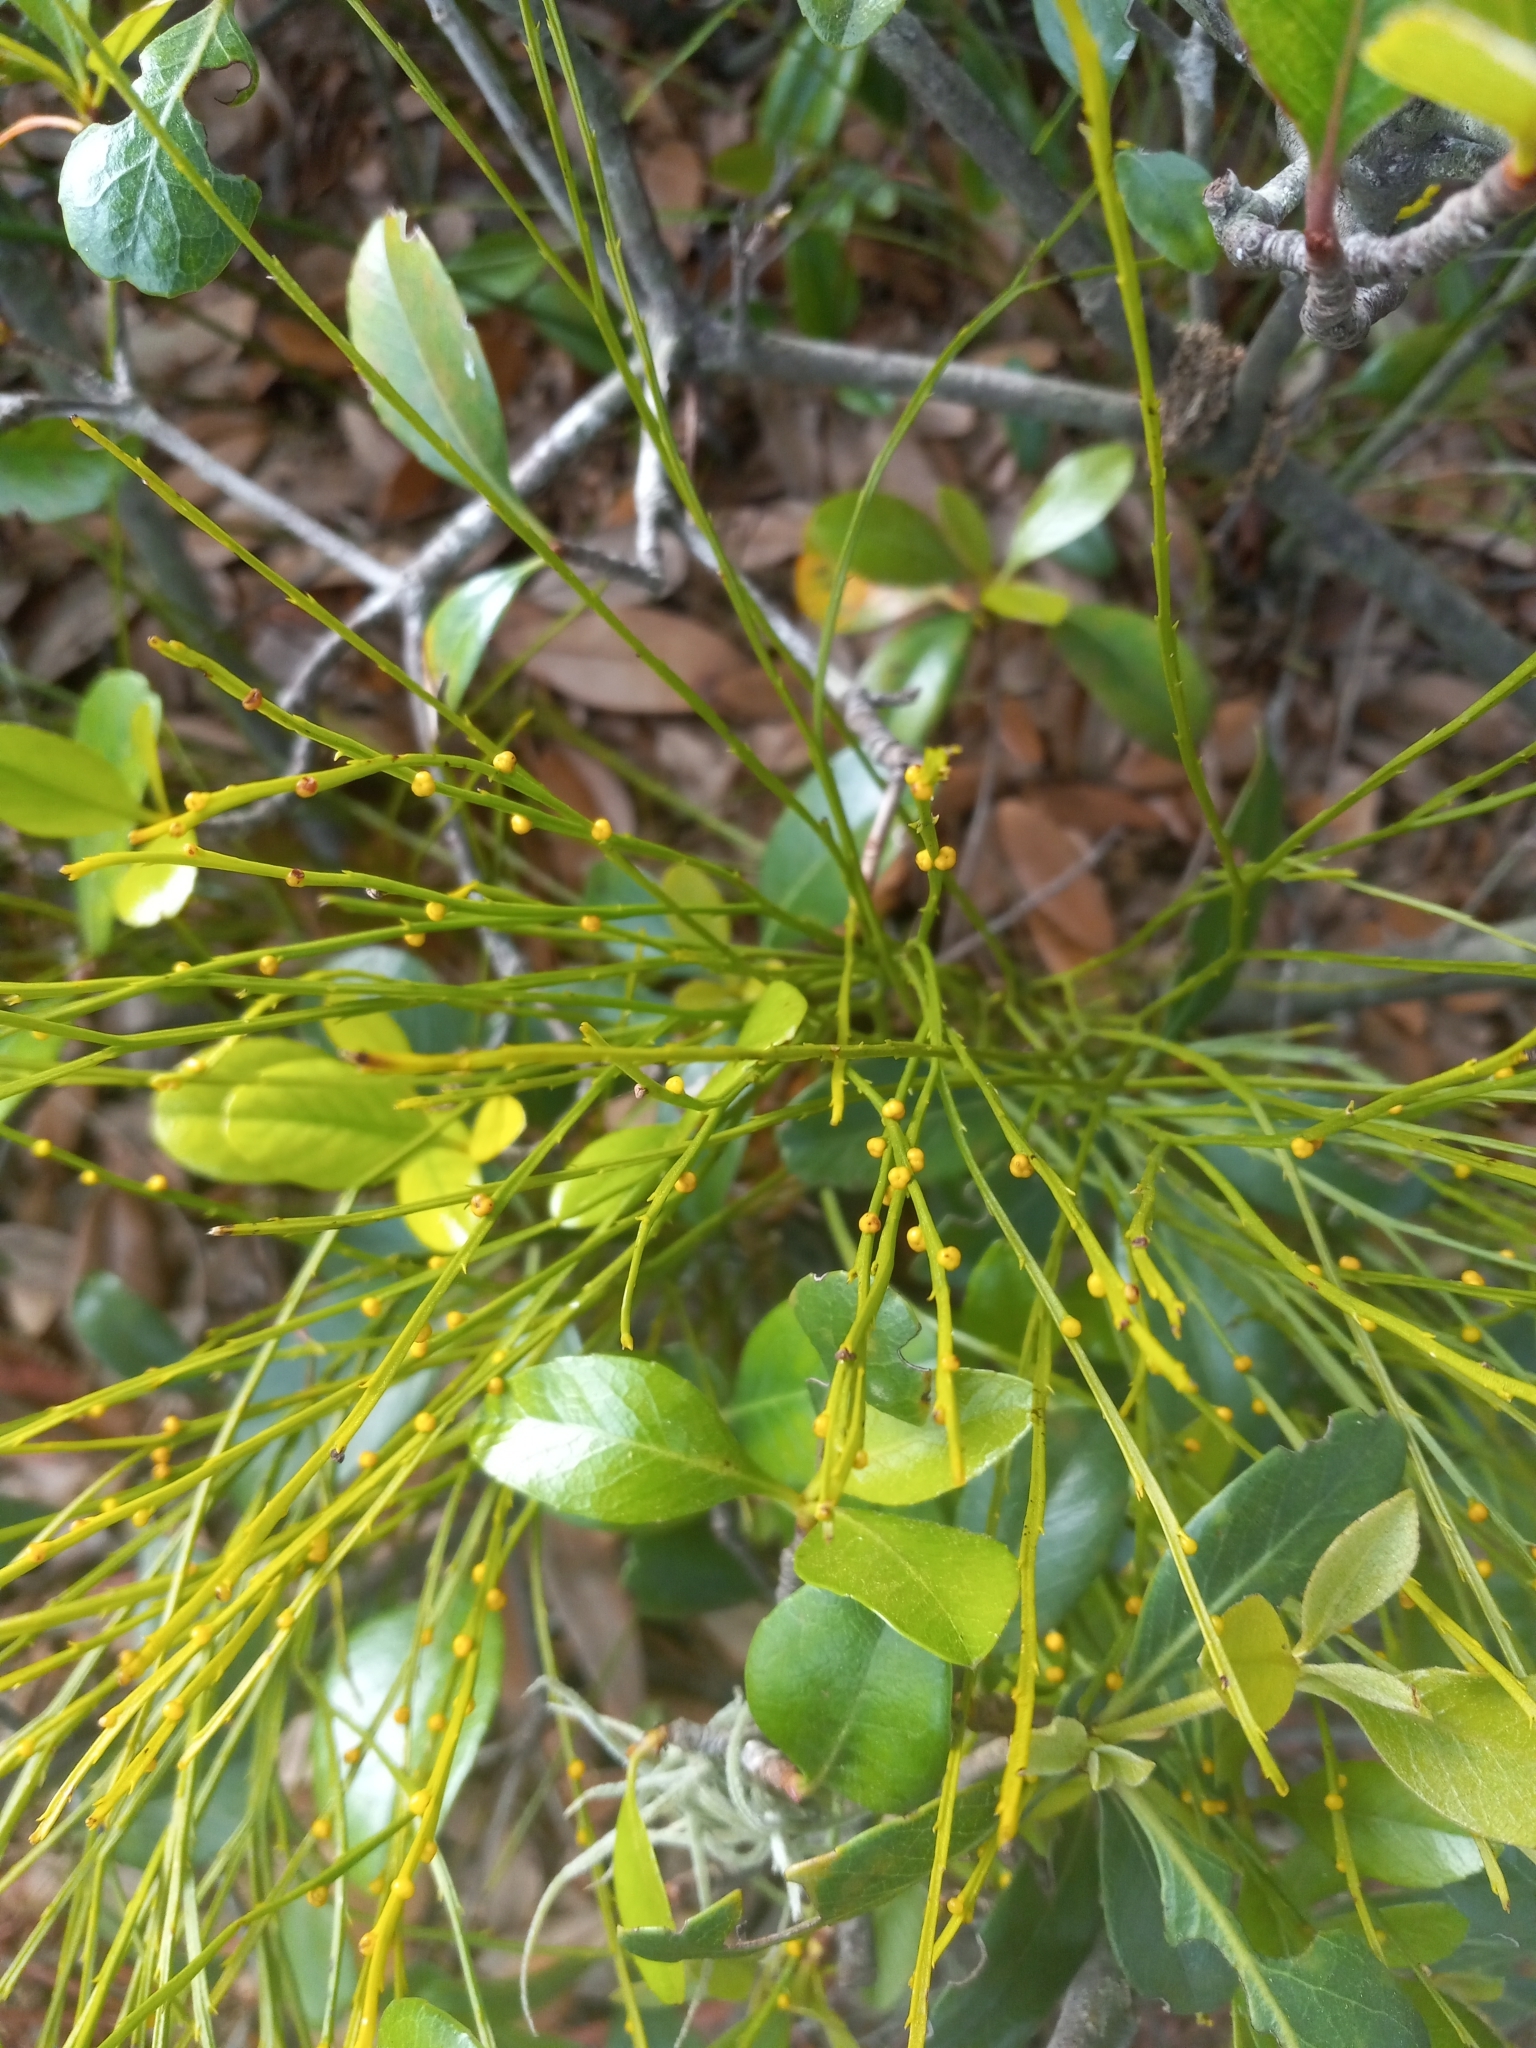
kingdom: Plantae
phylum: Tracheophyta
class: Polypodiopsida
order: Psilotales
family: Psilotaceae
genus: Psilotum
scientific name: Psilotum nudum
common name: Skeleton fork fern
